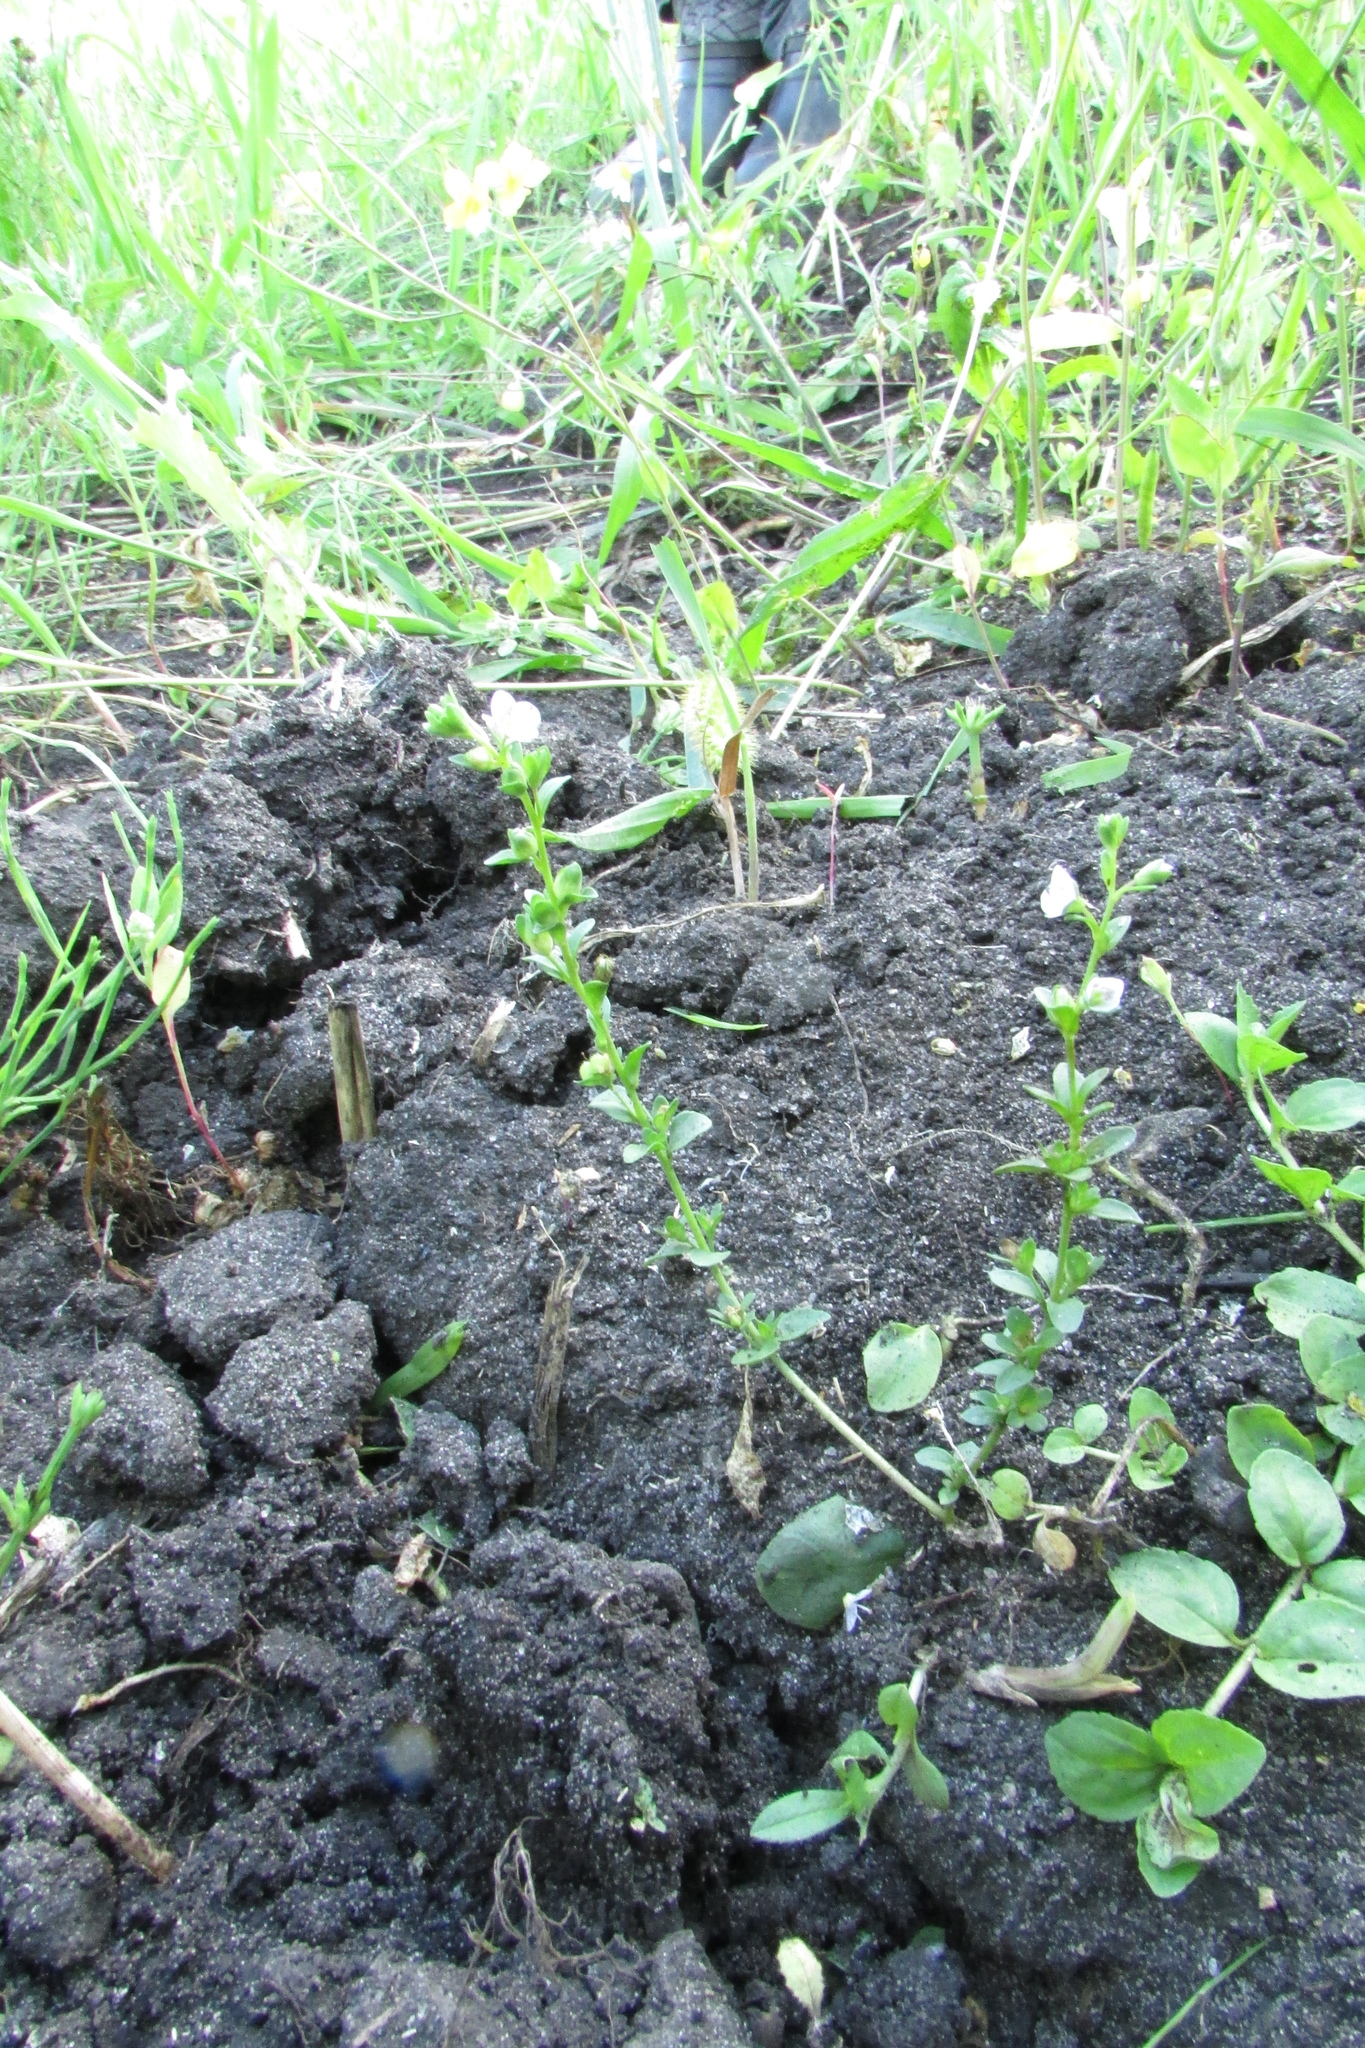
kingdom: Plantae
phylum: Tracheophyta
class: Magnoliopsida
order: Lamiales
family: Plantaginaceae
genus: Veronica
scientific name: Veronica serpyllifolia
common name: Thyme-leaved speedwell
